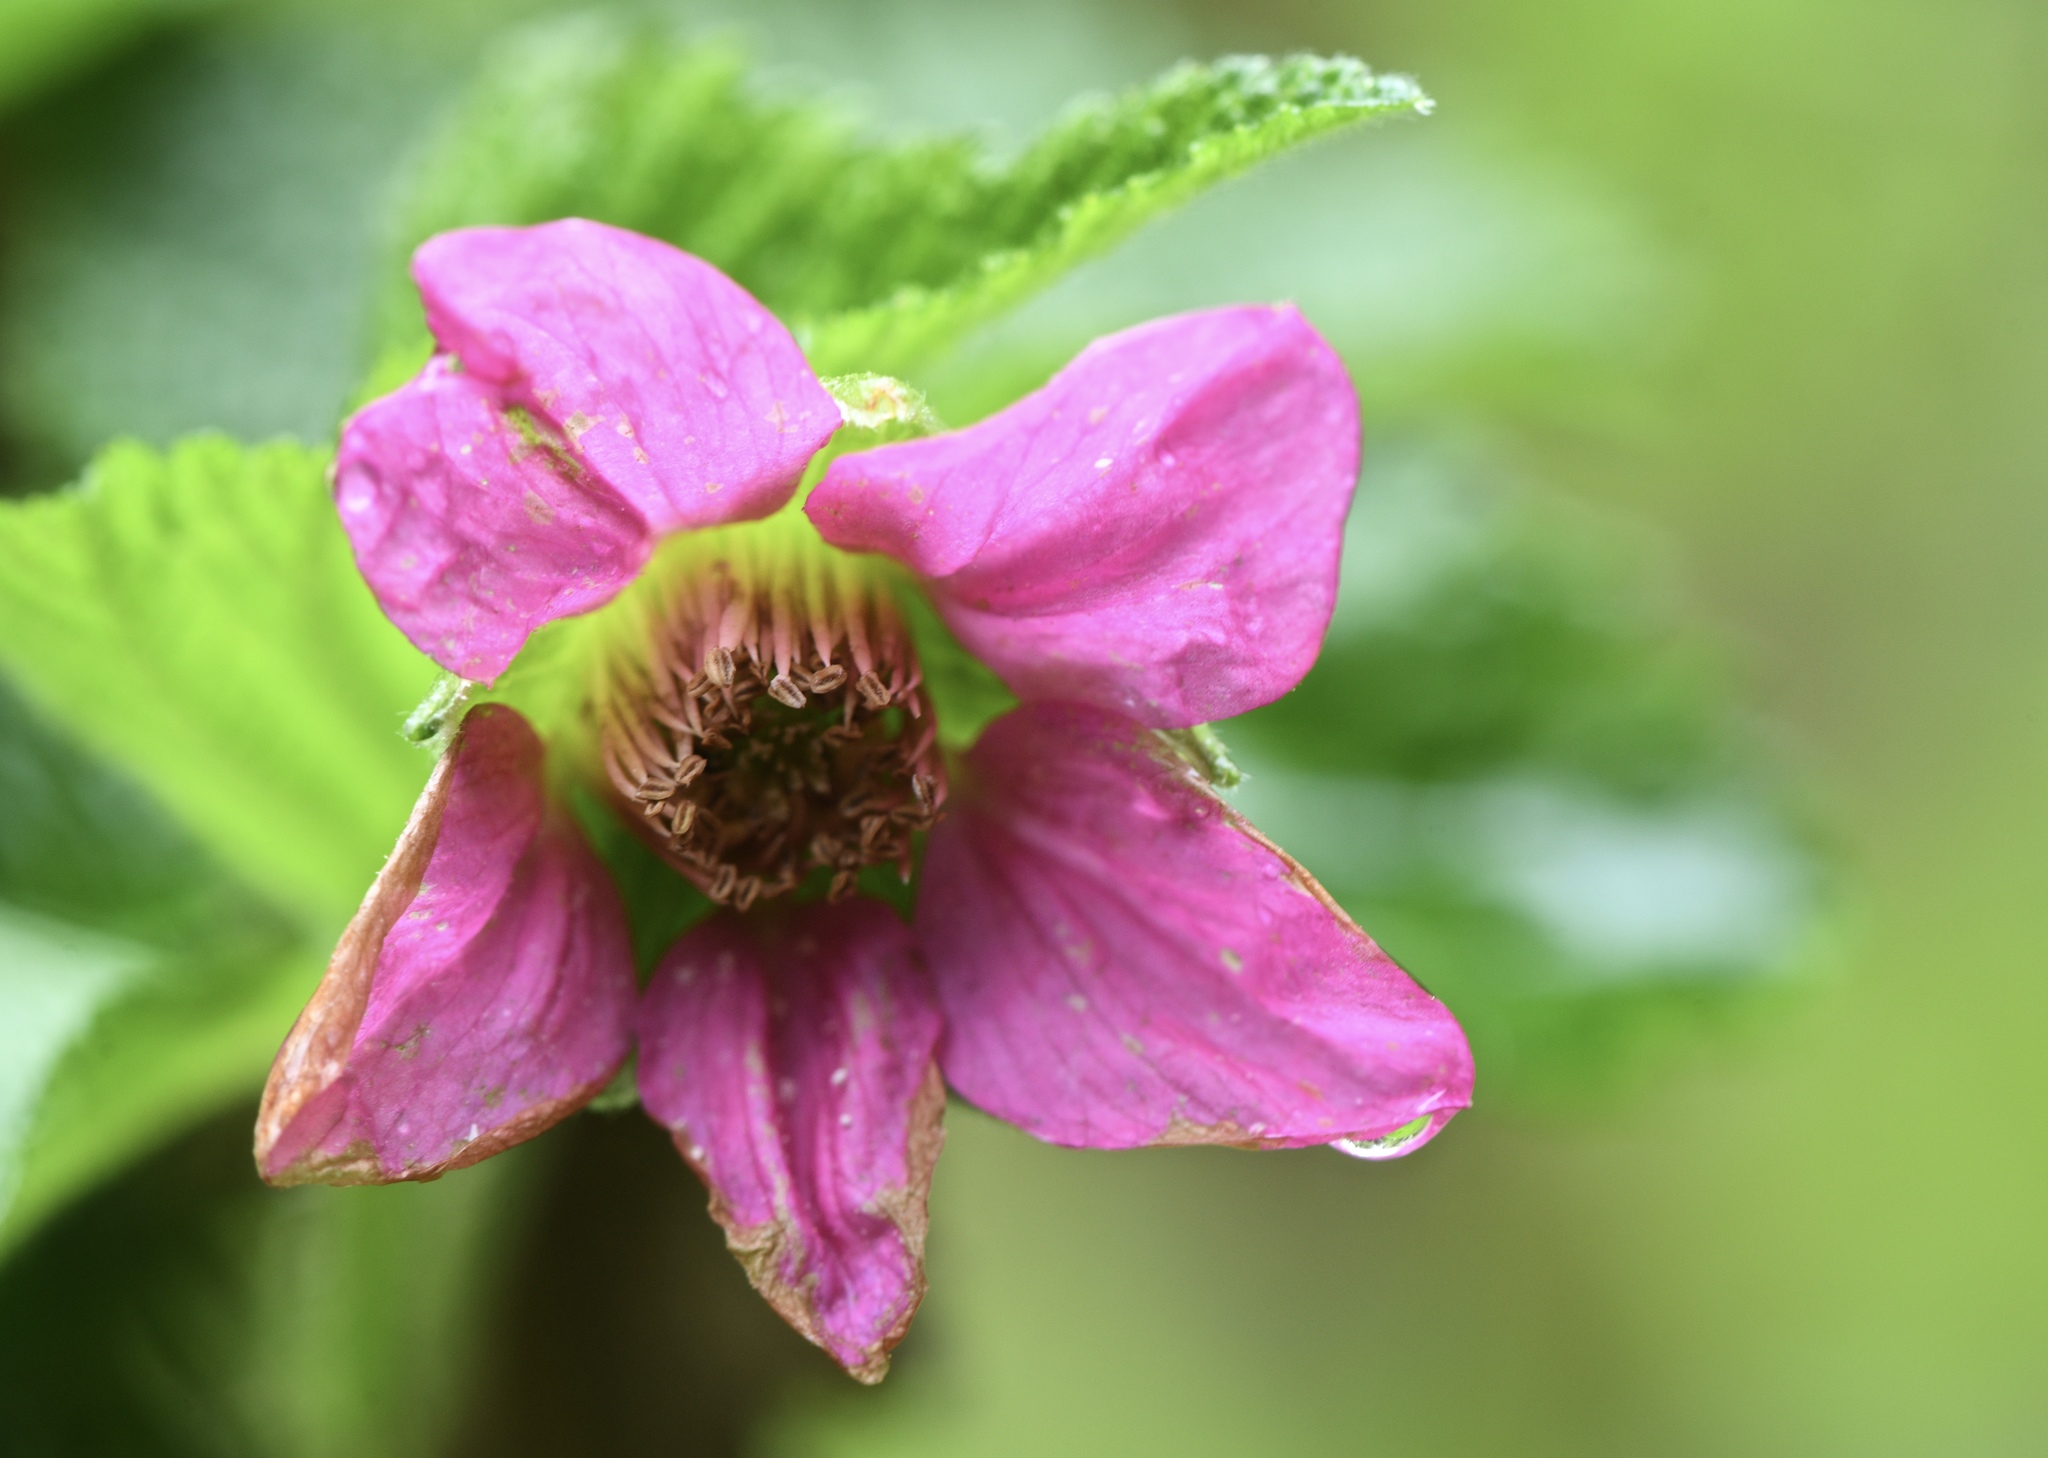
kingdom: Plantae
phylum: Tracheophyta
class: Magnoliopsida
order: Rosales
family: Rosaceae
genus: Rubus
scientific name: Rubus spectabilis
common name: Salmonberry
